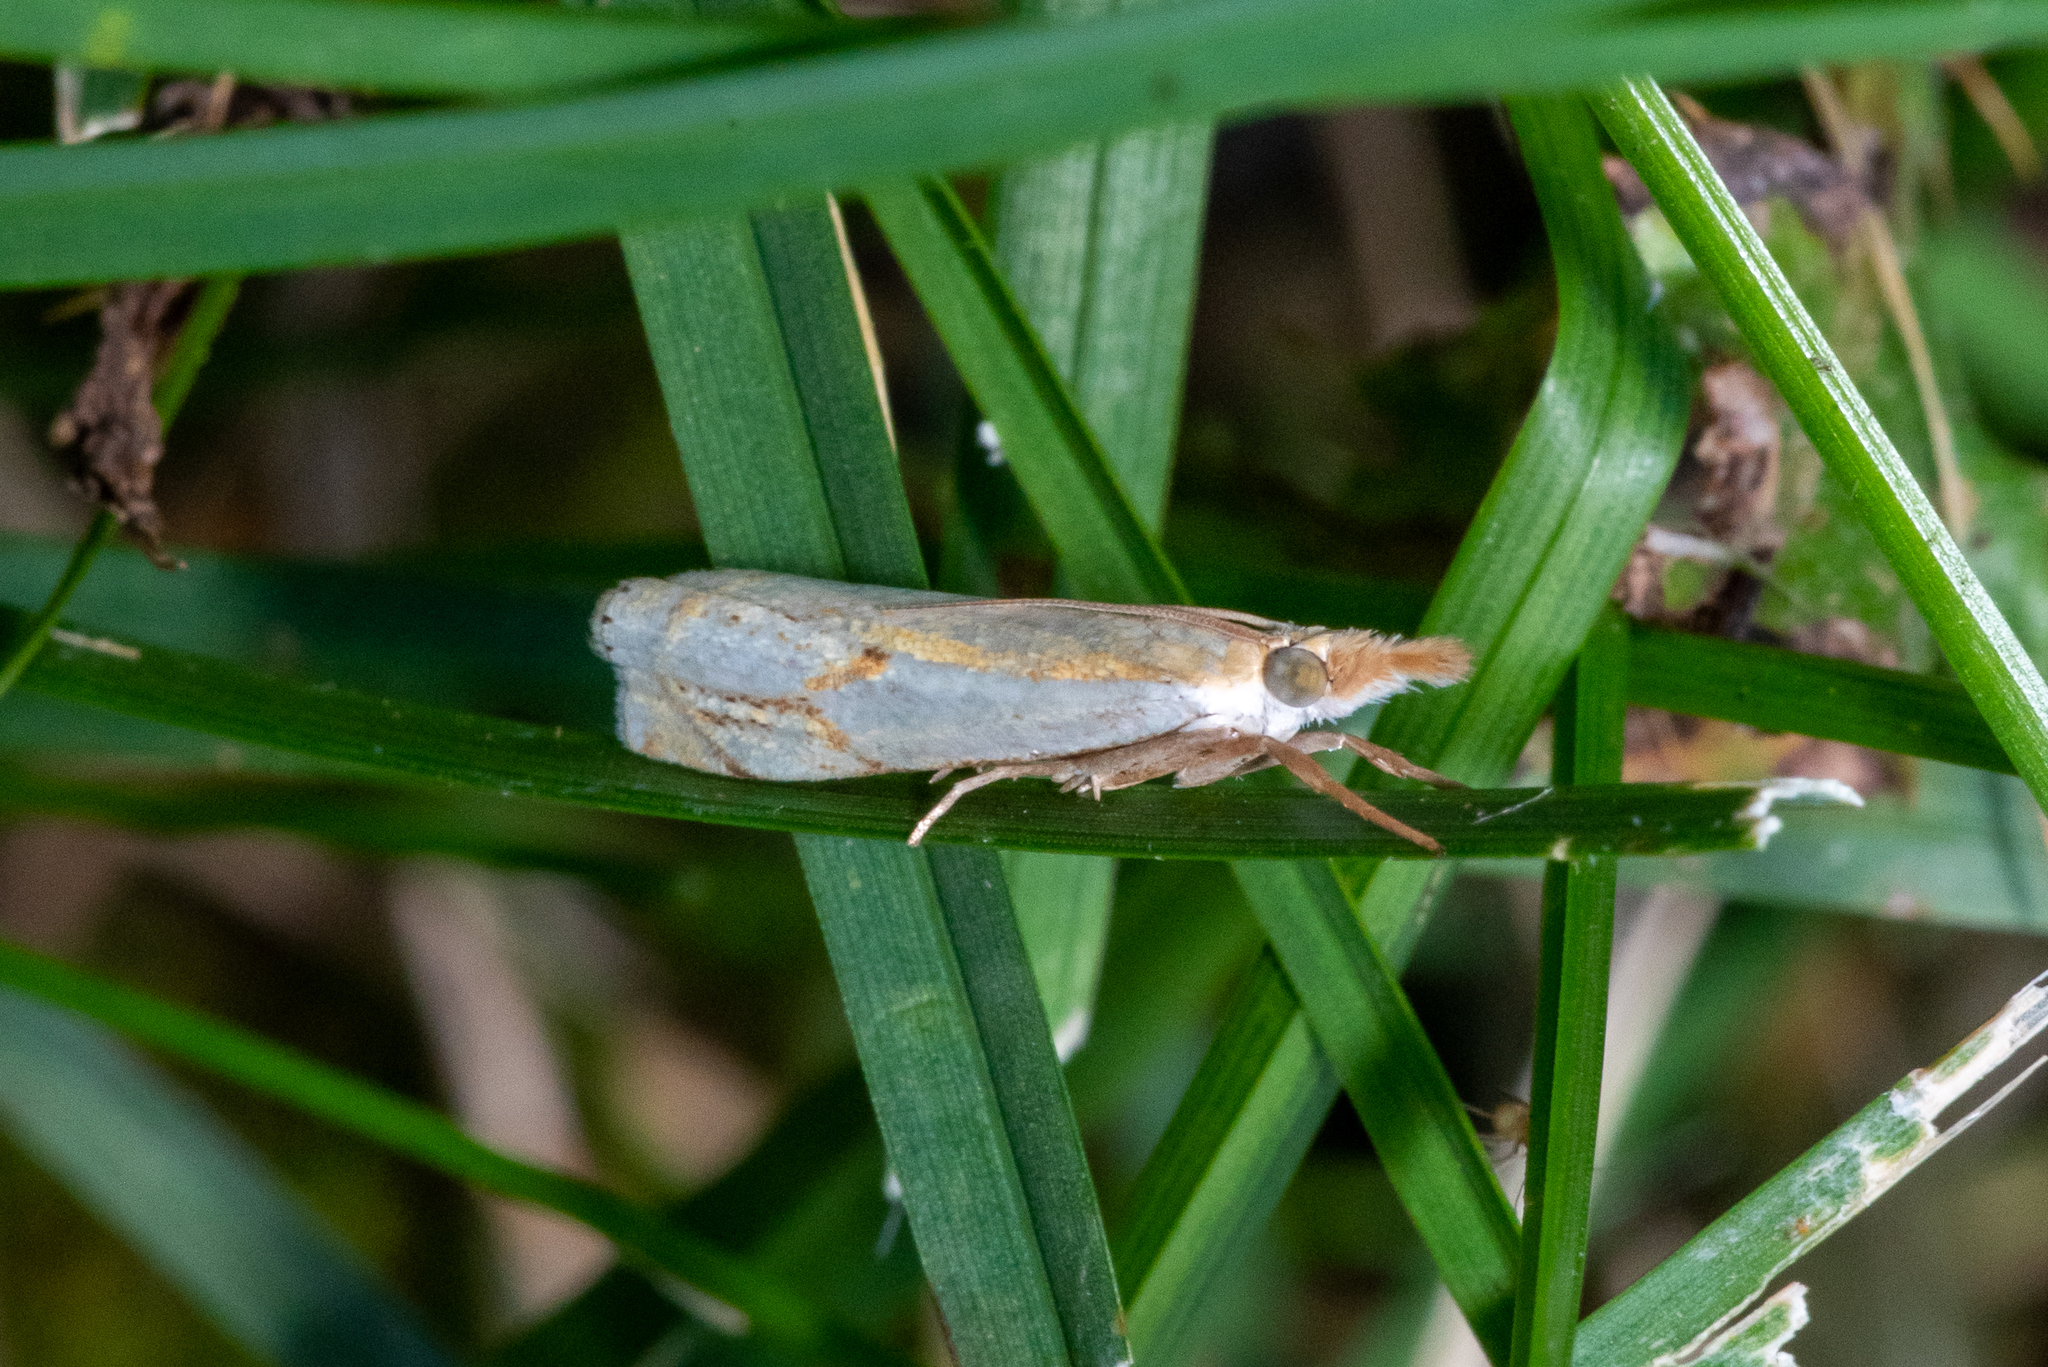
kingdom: Animalia
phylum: Arthropoda
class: Insecta
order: Lepidoptera
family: Crambidae
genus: Crambus
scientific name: Crambus agitatellus
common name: Double-banded grass-veneer
